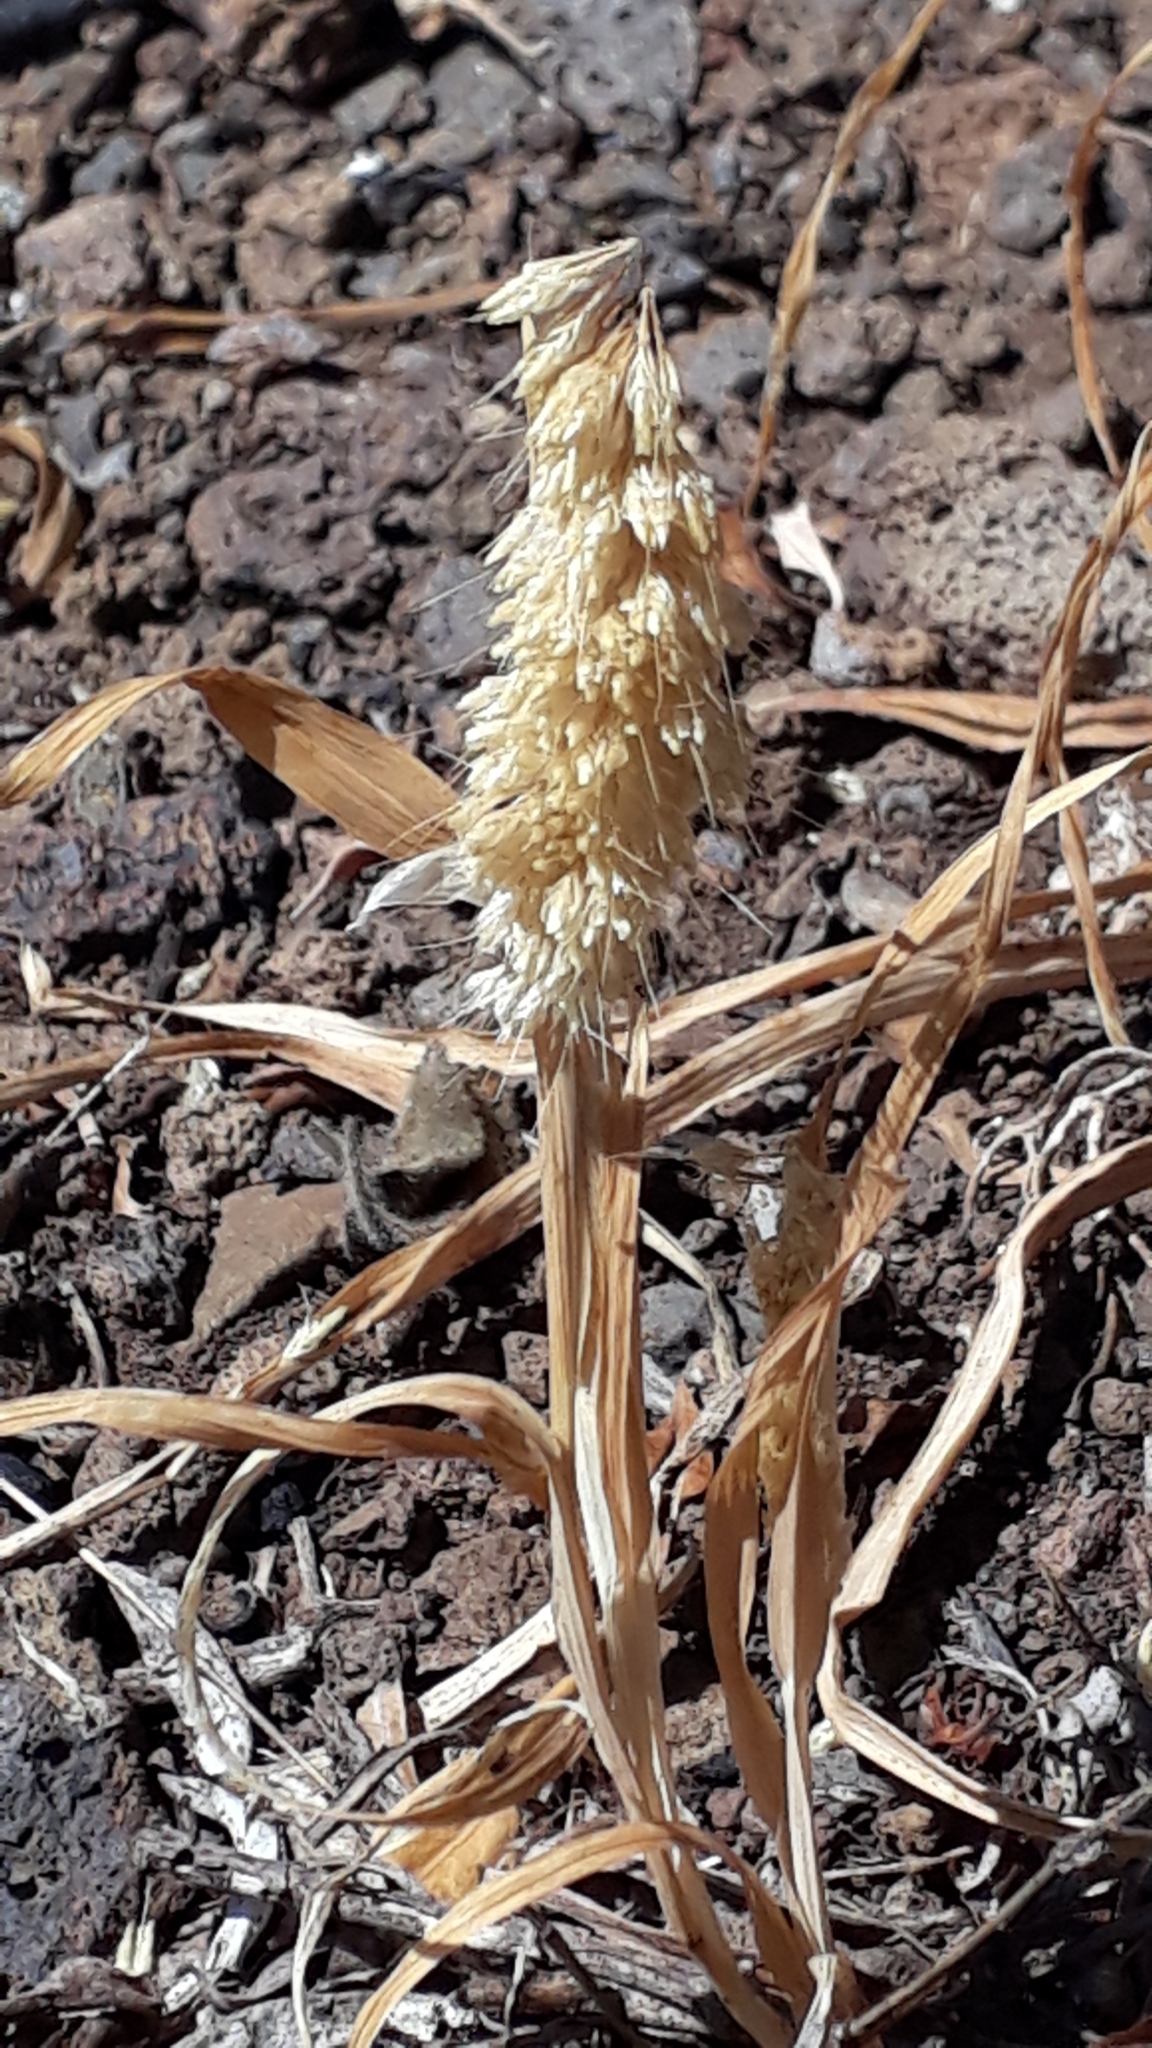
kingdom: Plantae
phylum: Tracheophyta
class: Liliopsida
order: Poales
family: Poaceae
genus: Lamarckia
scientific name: Lamarckia aurea
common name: Golden dog's-tail
